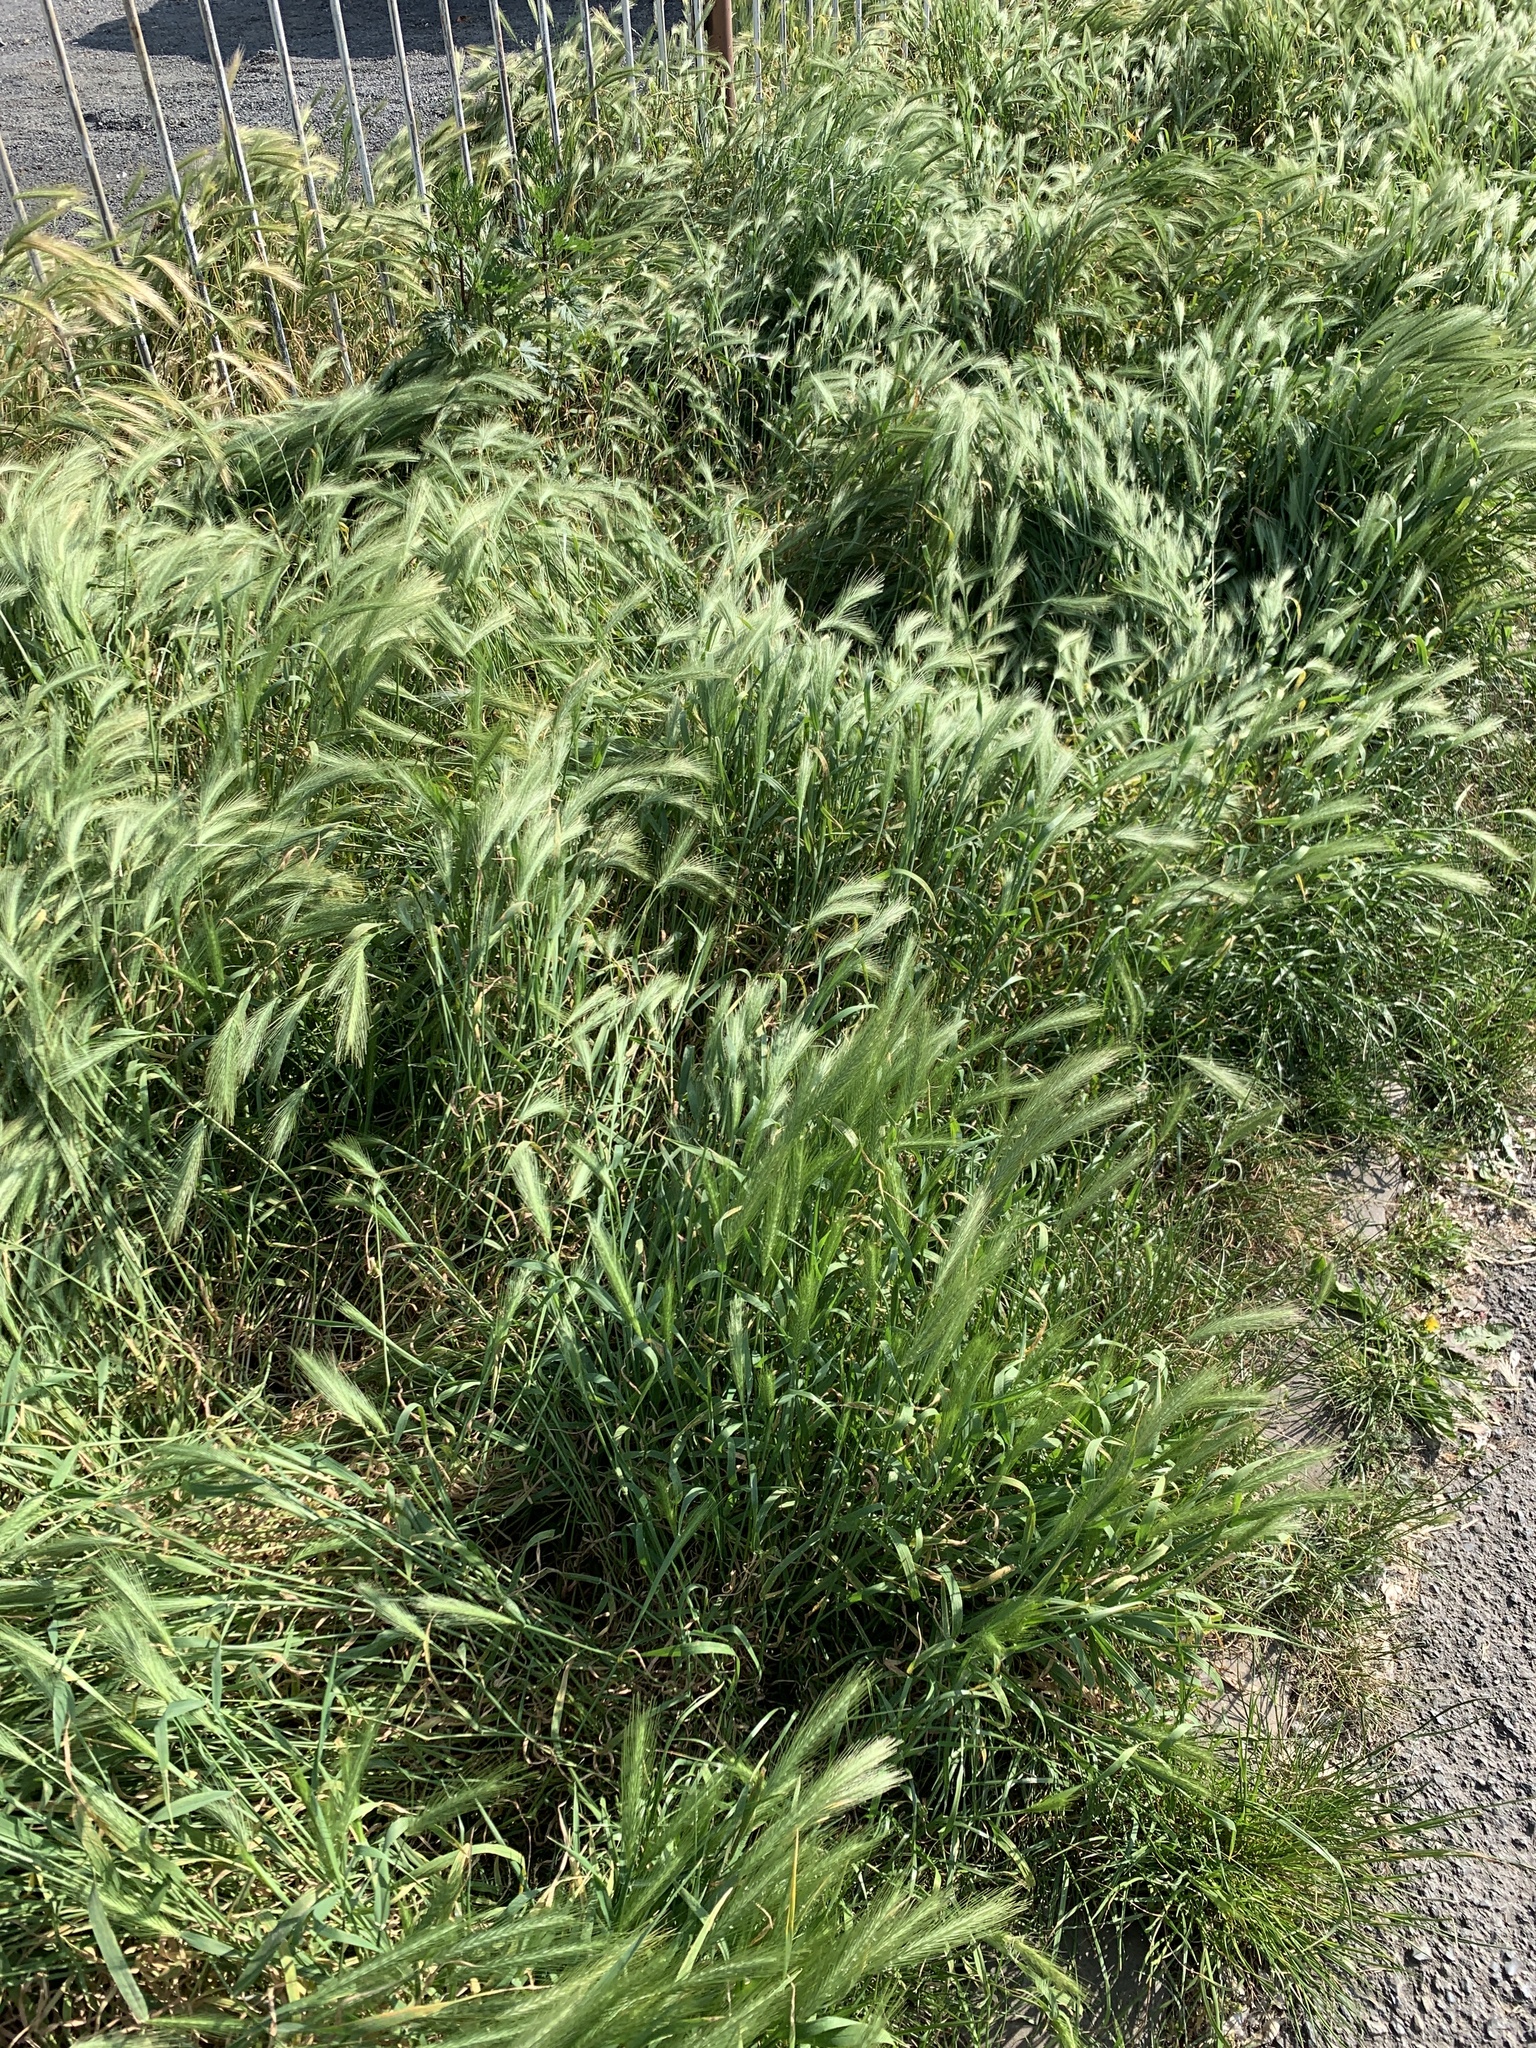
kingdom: Plantae
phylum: Tracheophyta
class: Liliopsida
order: Poales
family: Poaceae
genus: Hordeum
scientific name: Hordeum murinum
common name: Wall barley
